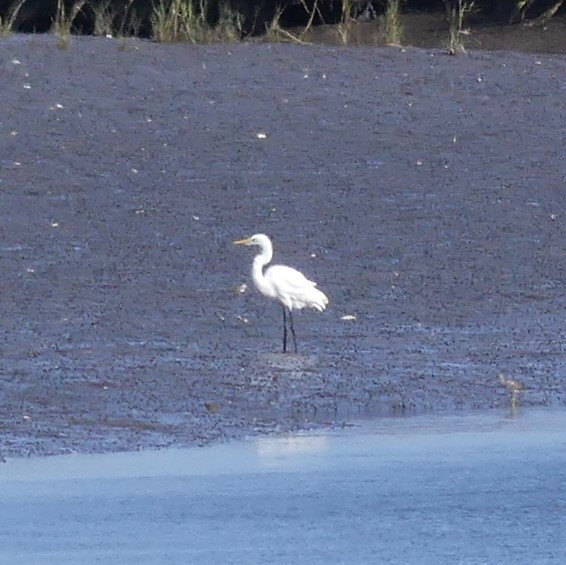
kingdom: Animalia
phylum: Chordata
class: Aves
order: Pelecaniformes
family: Ardeidae
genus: Ardea
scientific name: Ardea alba
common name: Great egret
